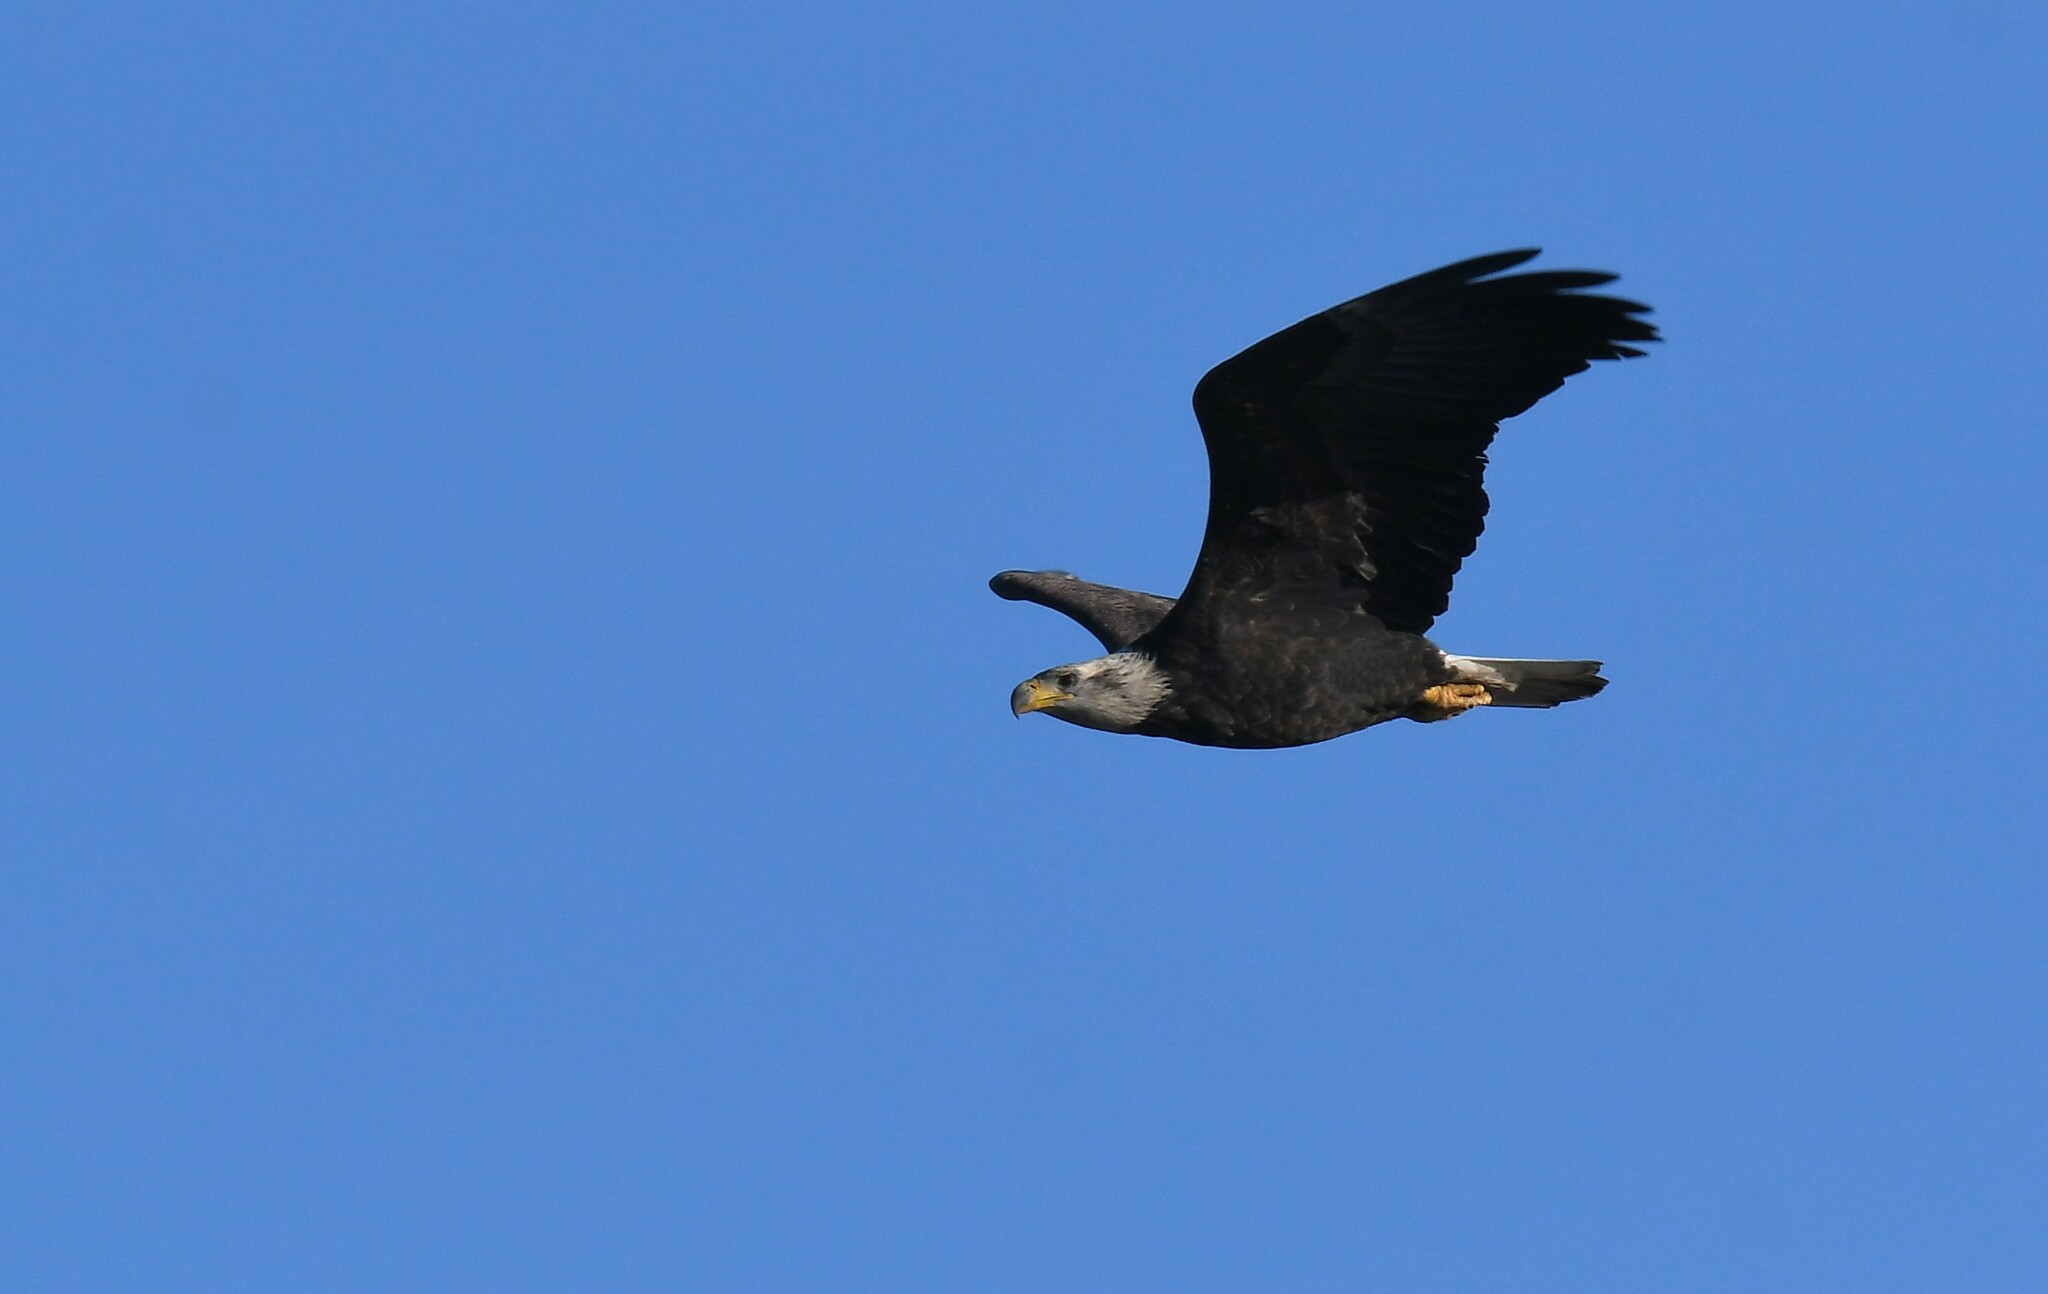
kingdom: Animalia
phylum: Chordata
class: Aves
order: Accipitriformes
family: Accipitridae
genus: Haliaeetus
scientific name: Haliaeetus leucocephalus
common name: Bald eagle
